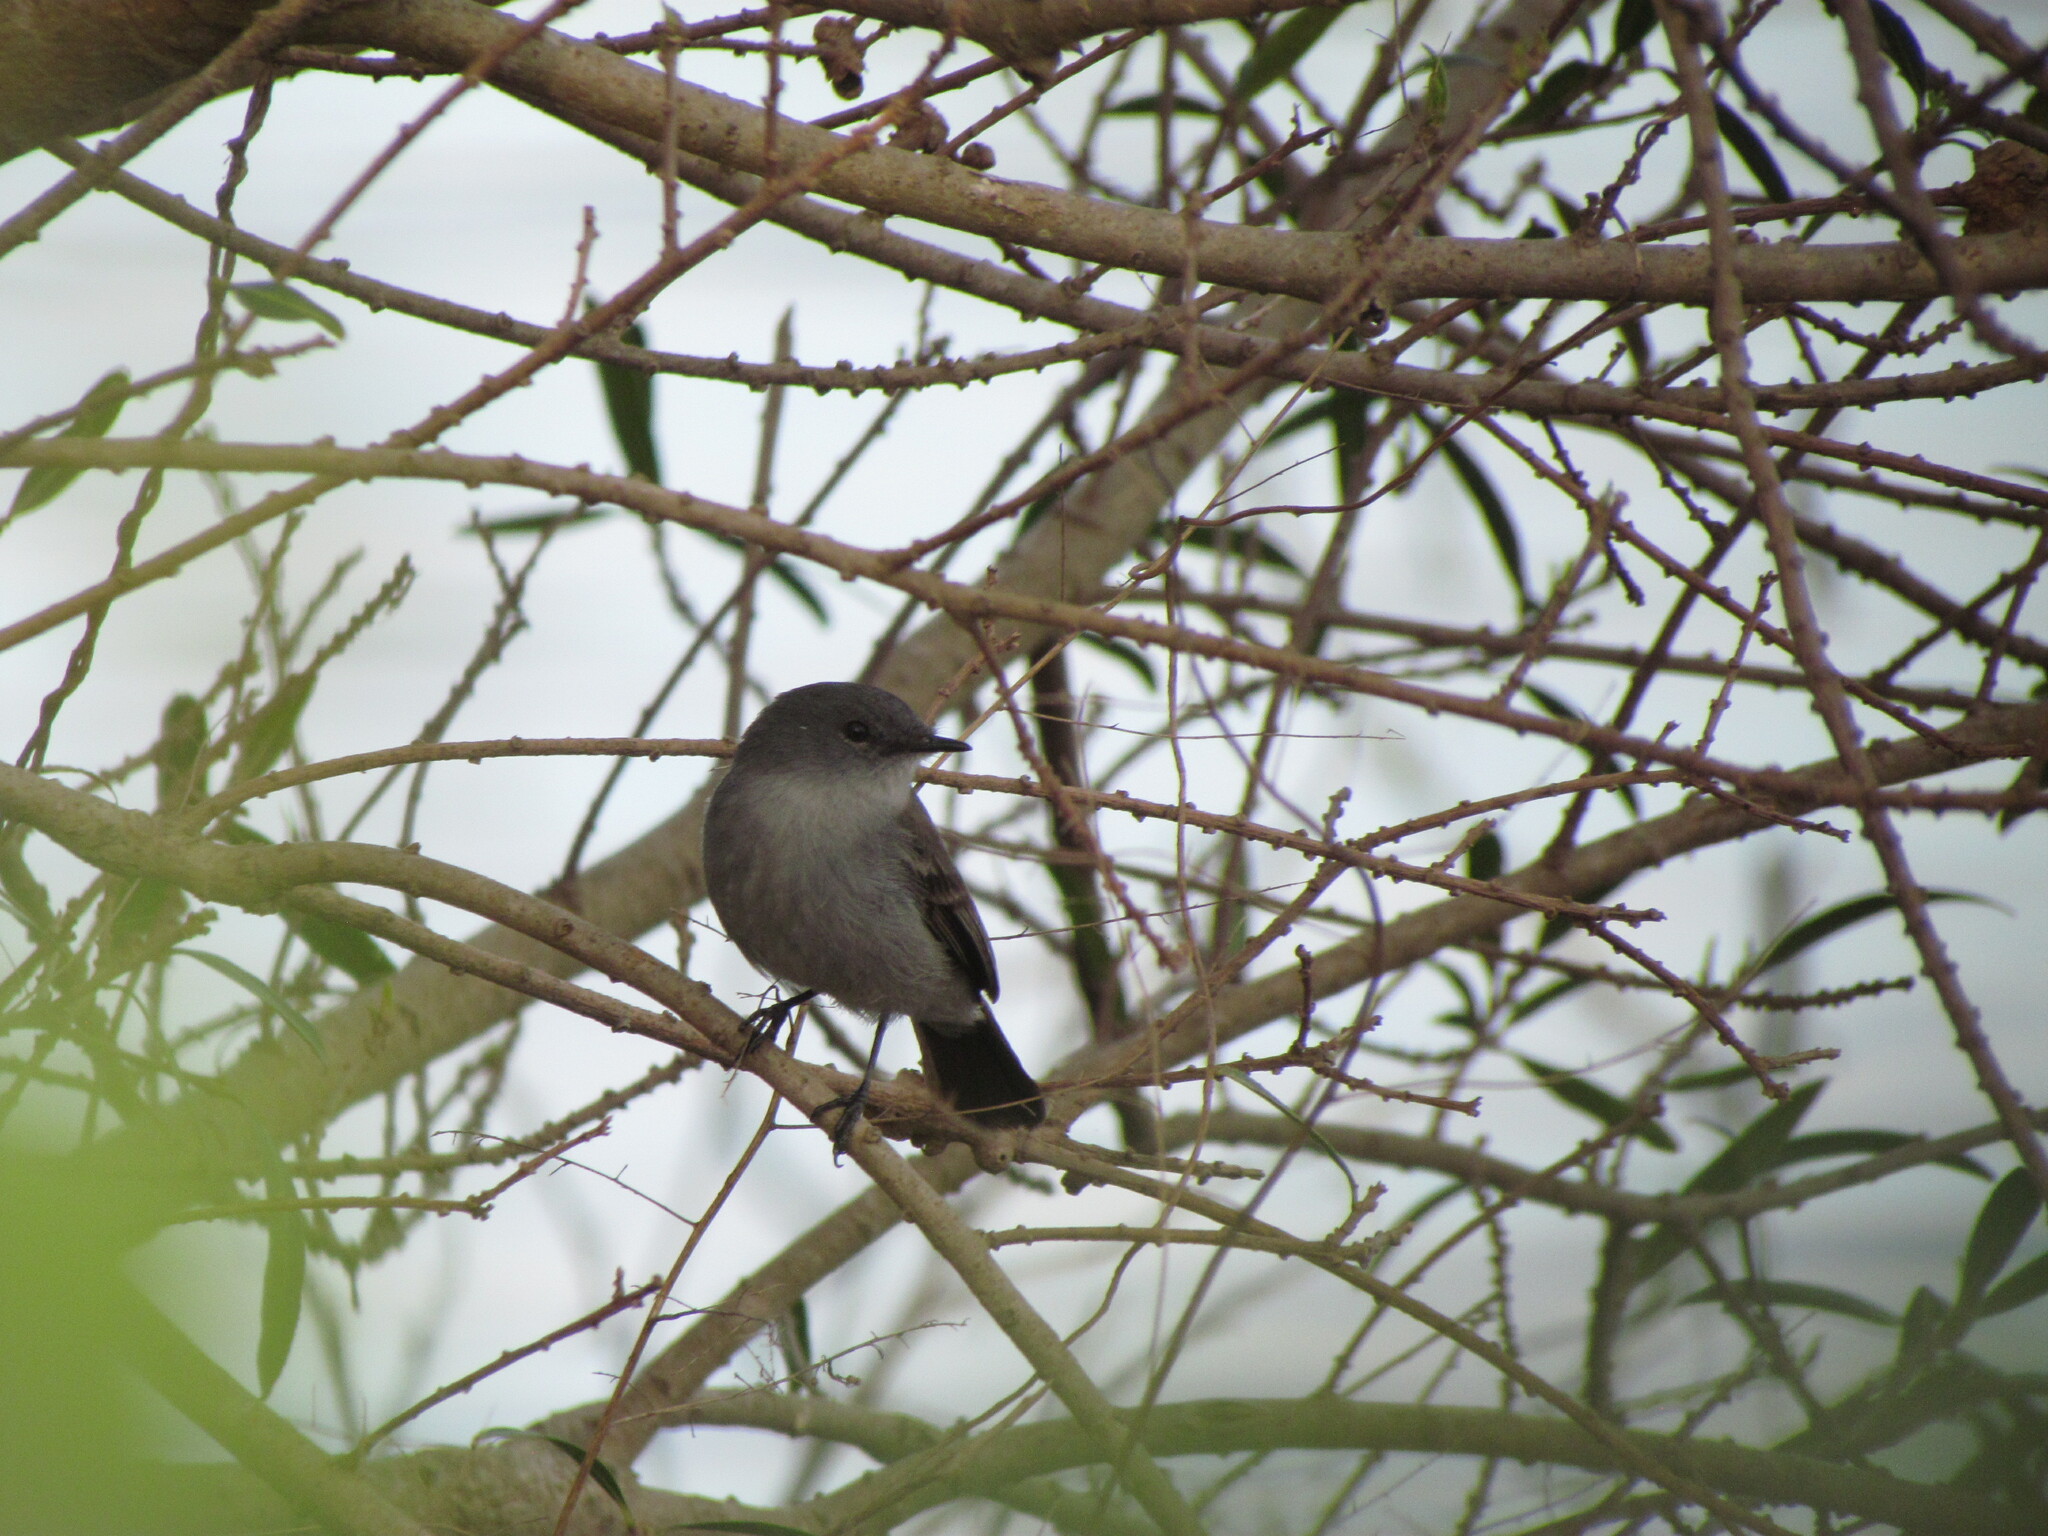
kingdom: Animalia
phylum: Chordata
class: Aves
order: Passeriformes
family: Tyrannidae
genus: Serpophaga
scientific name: Serpophaga nigricans
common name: Sooty tyrannulet
